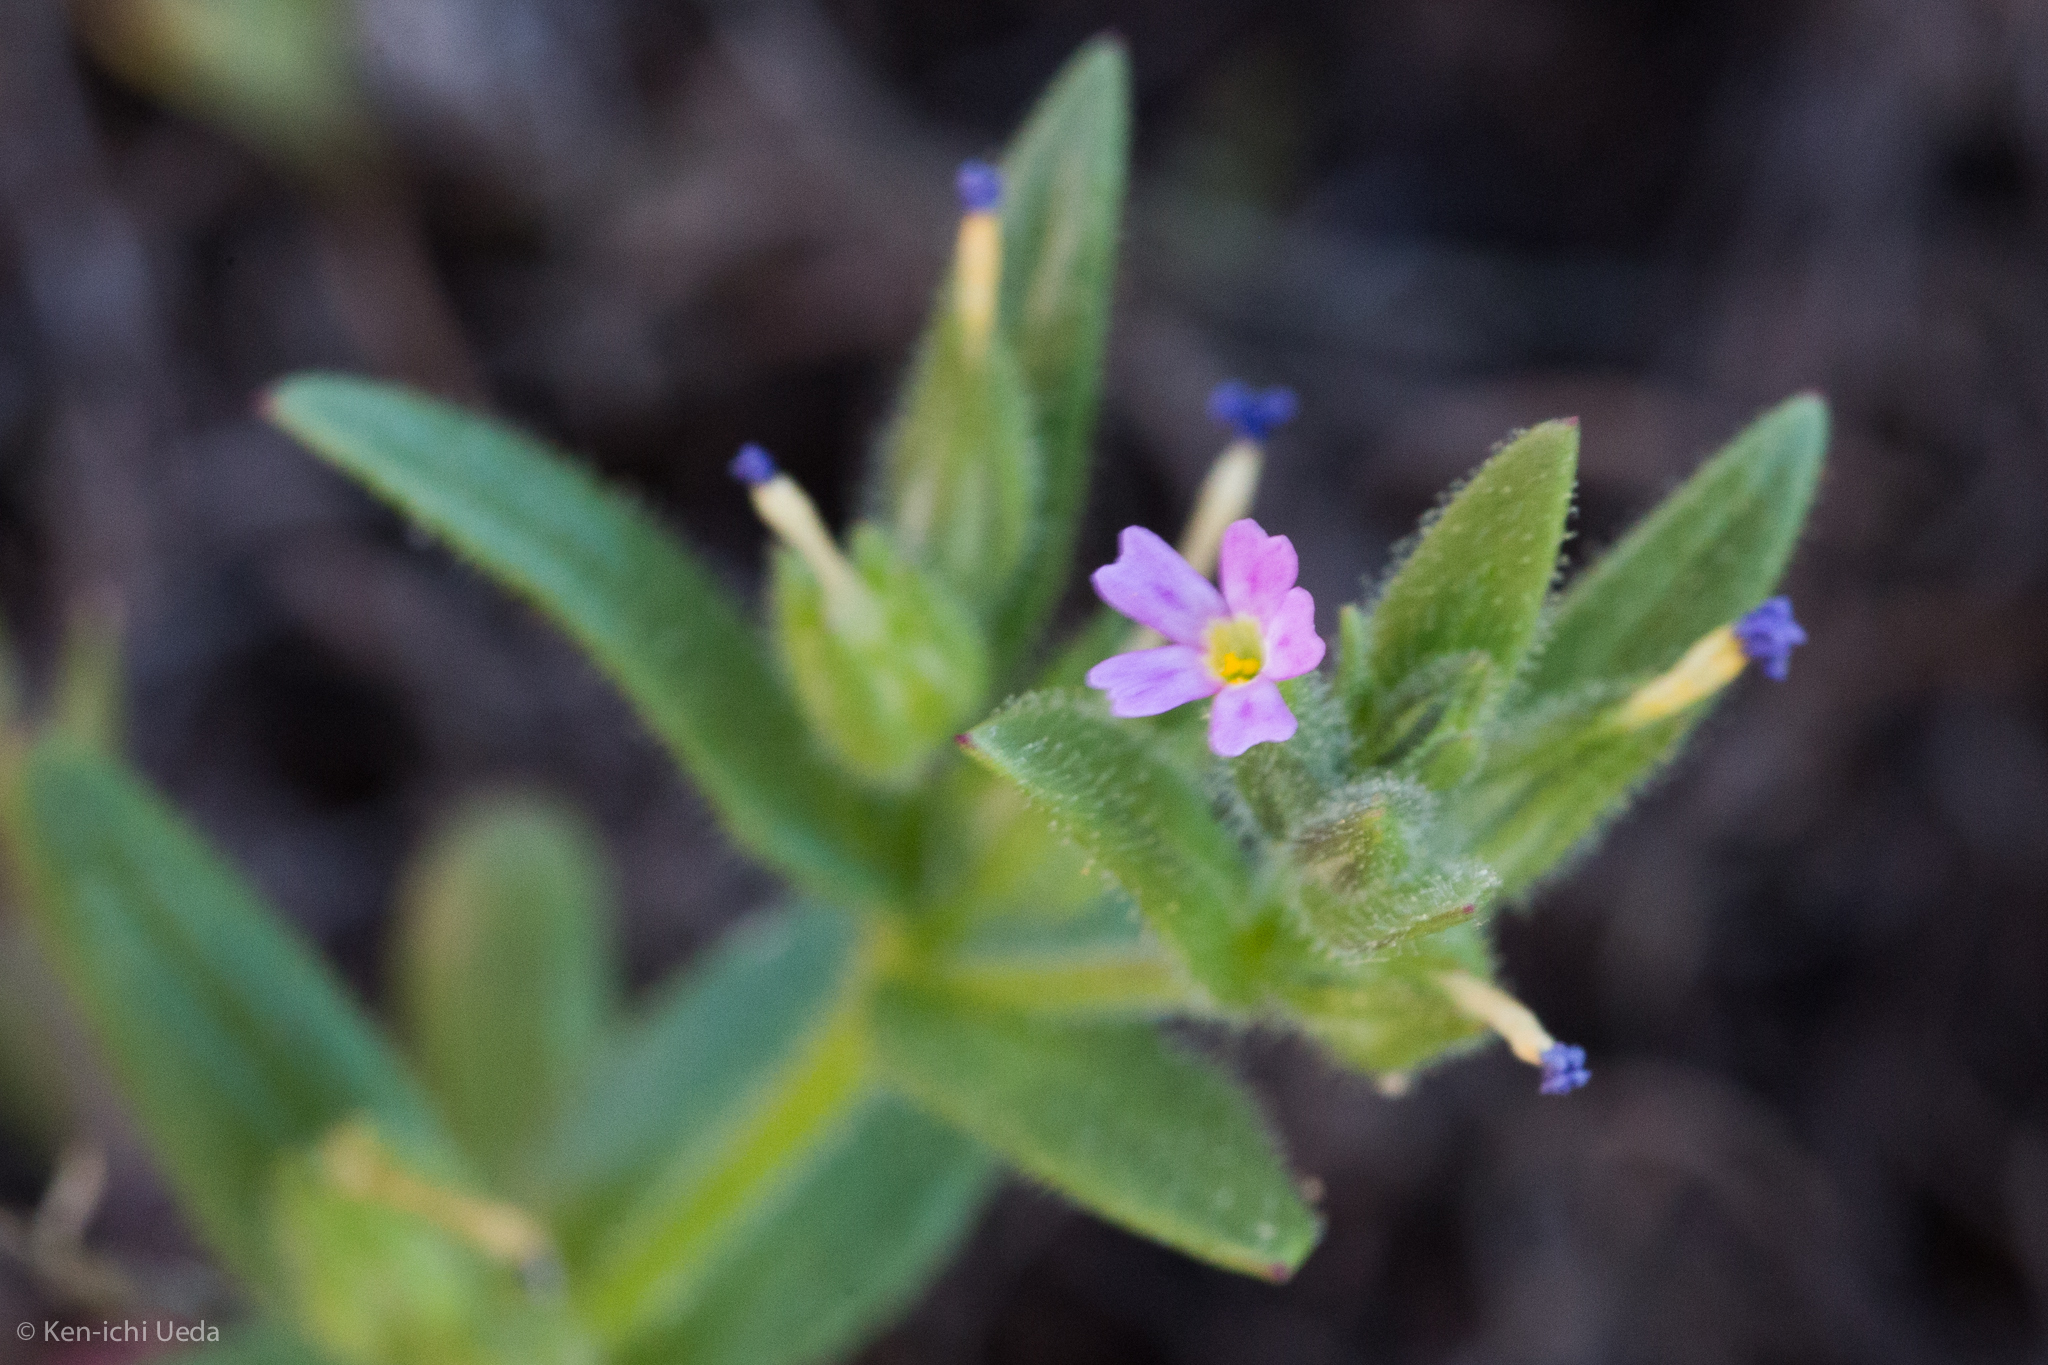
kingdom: Plantae
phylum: Tracheophyta
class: Magnoliopsida
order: Ericales
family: Polemoniaceae
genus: Phlox
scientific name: Phlox gracilis
